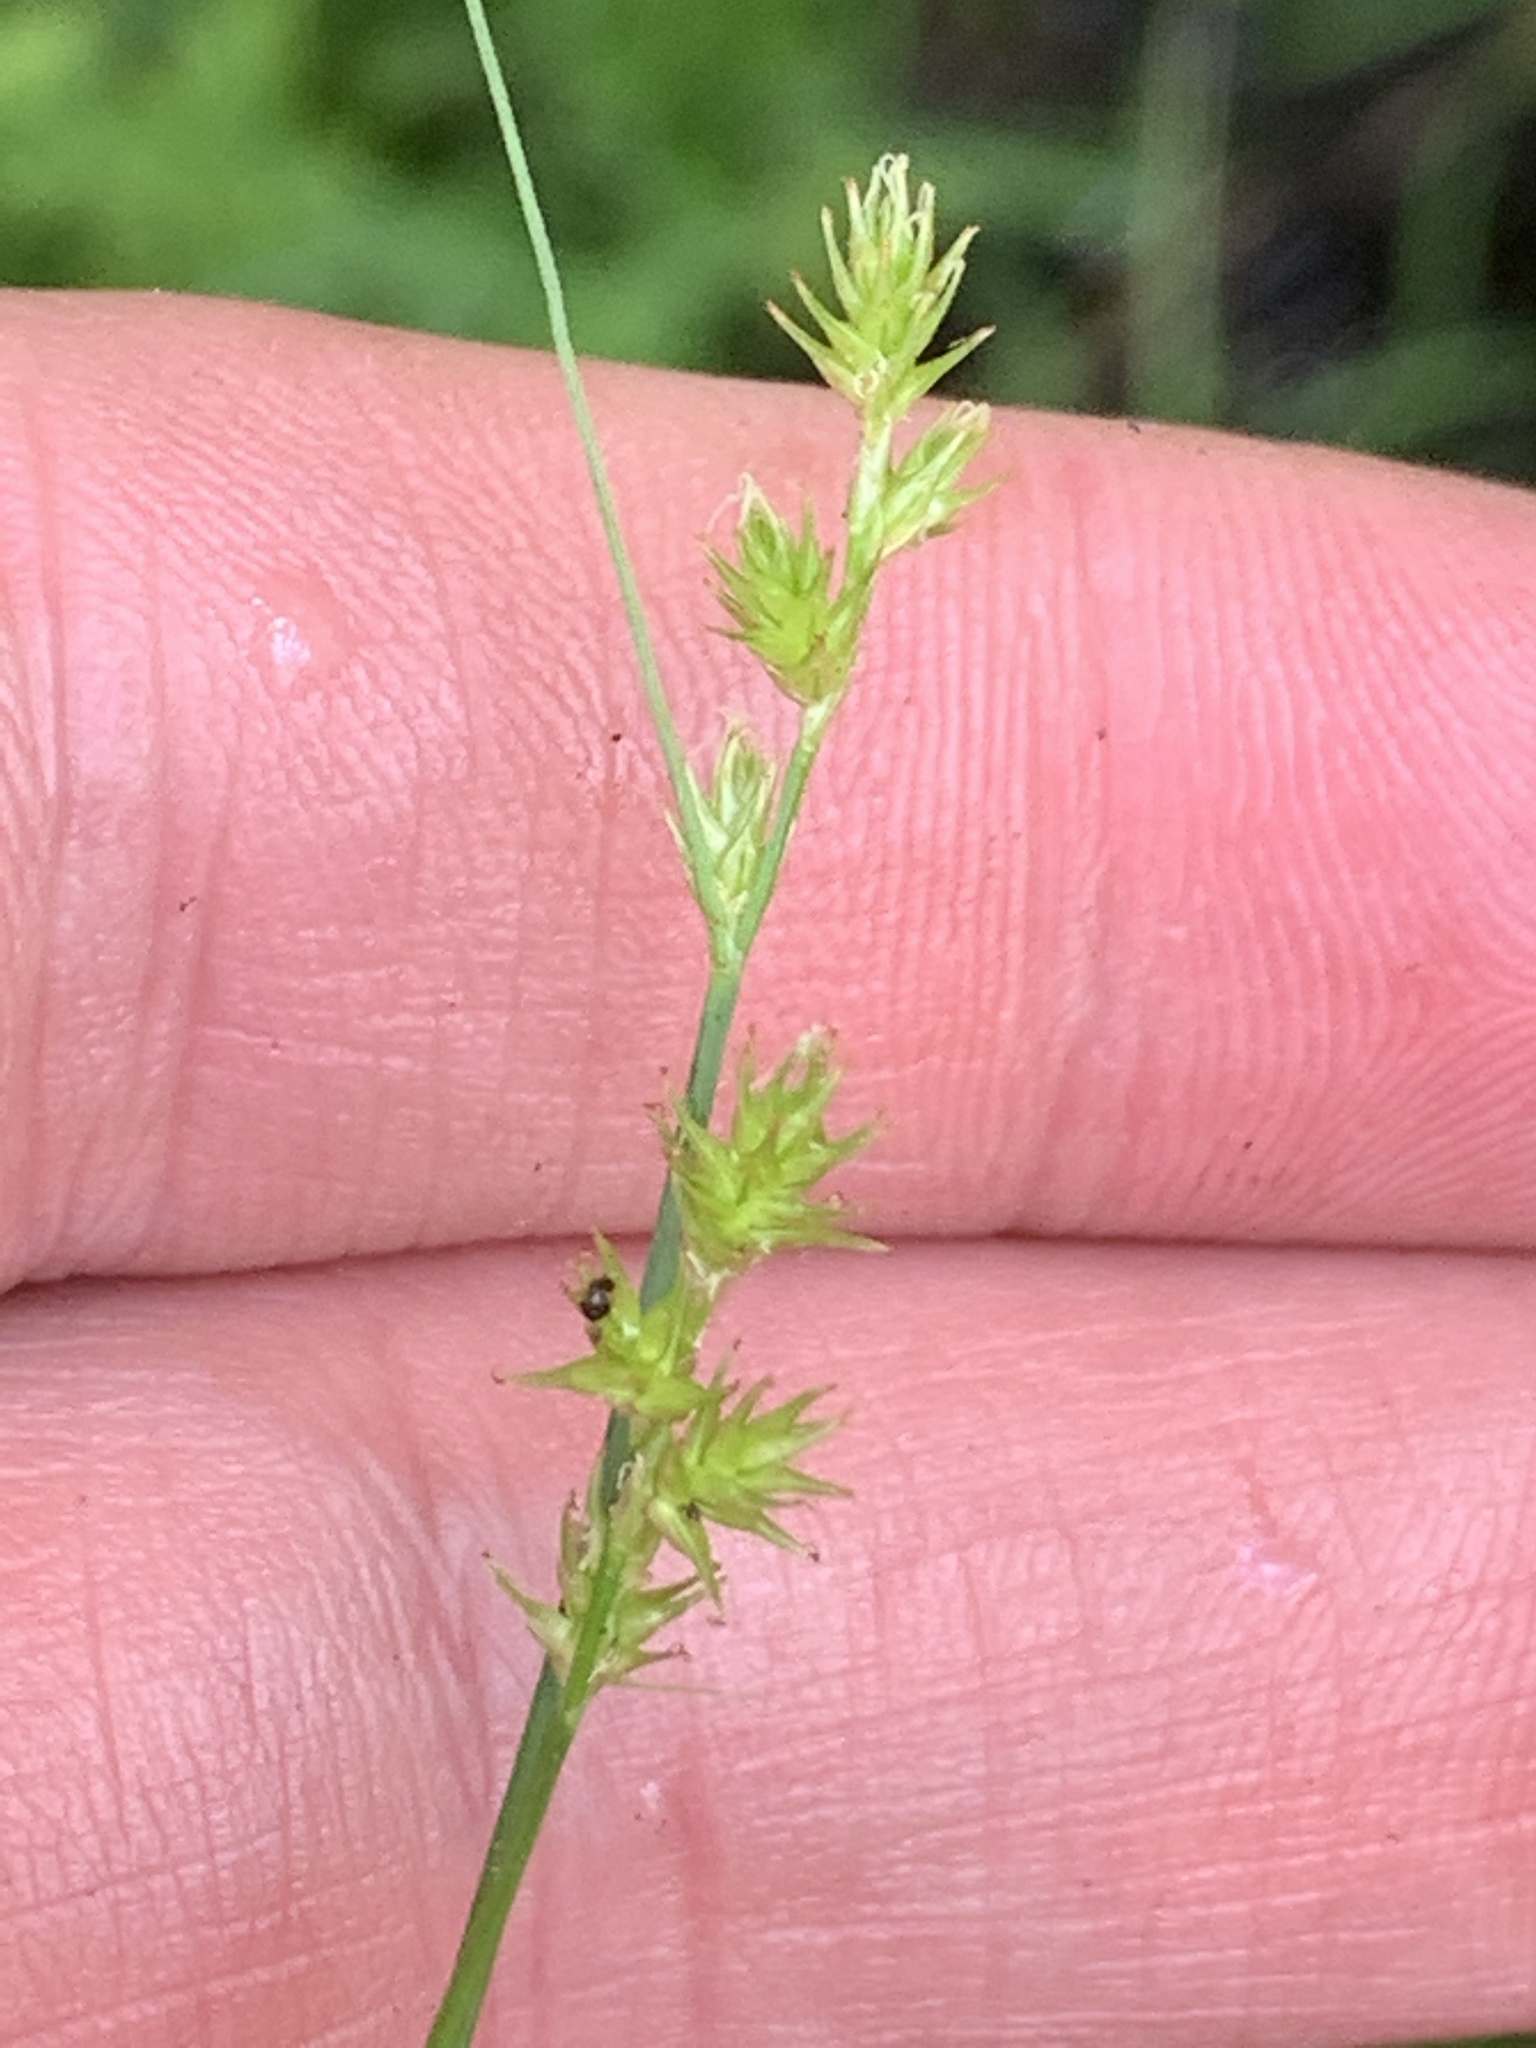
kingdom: Plantae
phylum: Tracheophyta
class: Liliopsida
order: Poales
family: Cyperaceae
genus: Carex
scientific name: Carex echinata
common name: Star sedge
